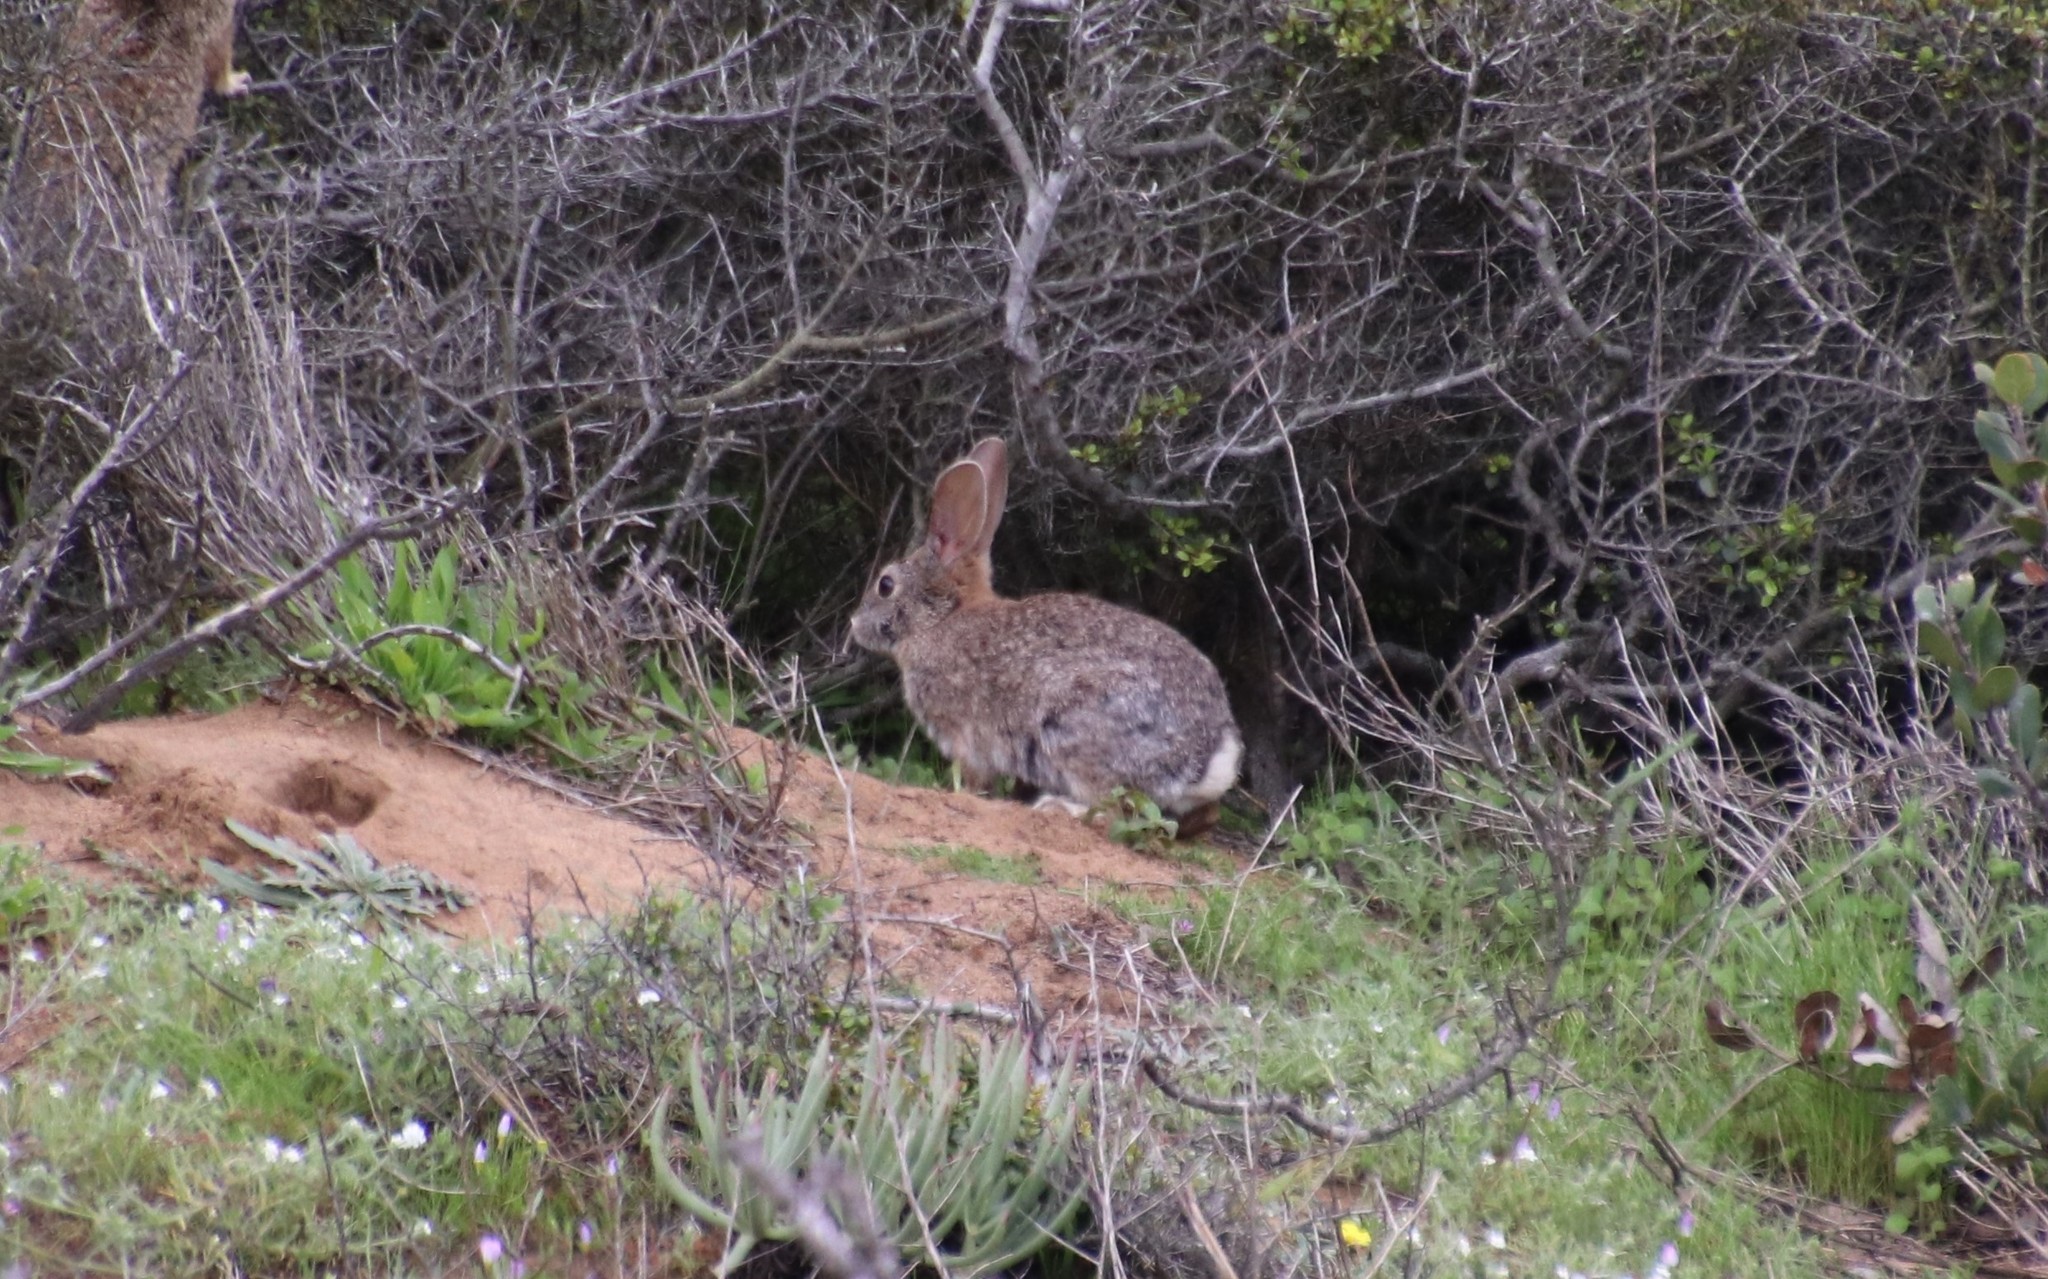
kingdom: Animalia
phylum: Chordata
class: Mammalia
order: Lagomorpha
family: Leporidae
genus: Sylvilagus
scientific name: Sylvilagus audubonii
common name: Desert cottontail
